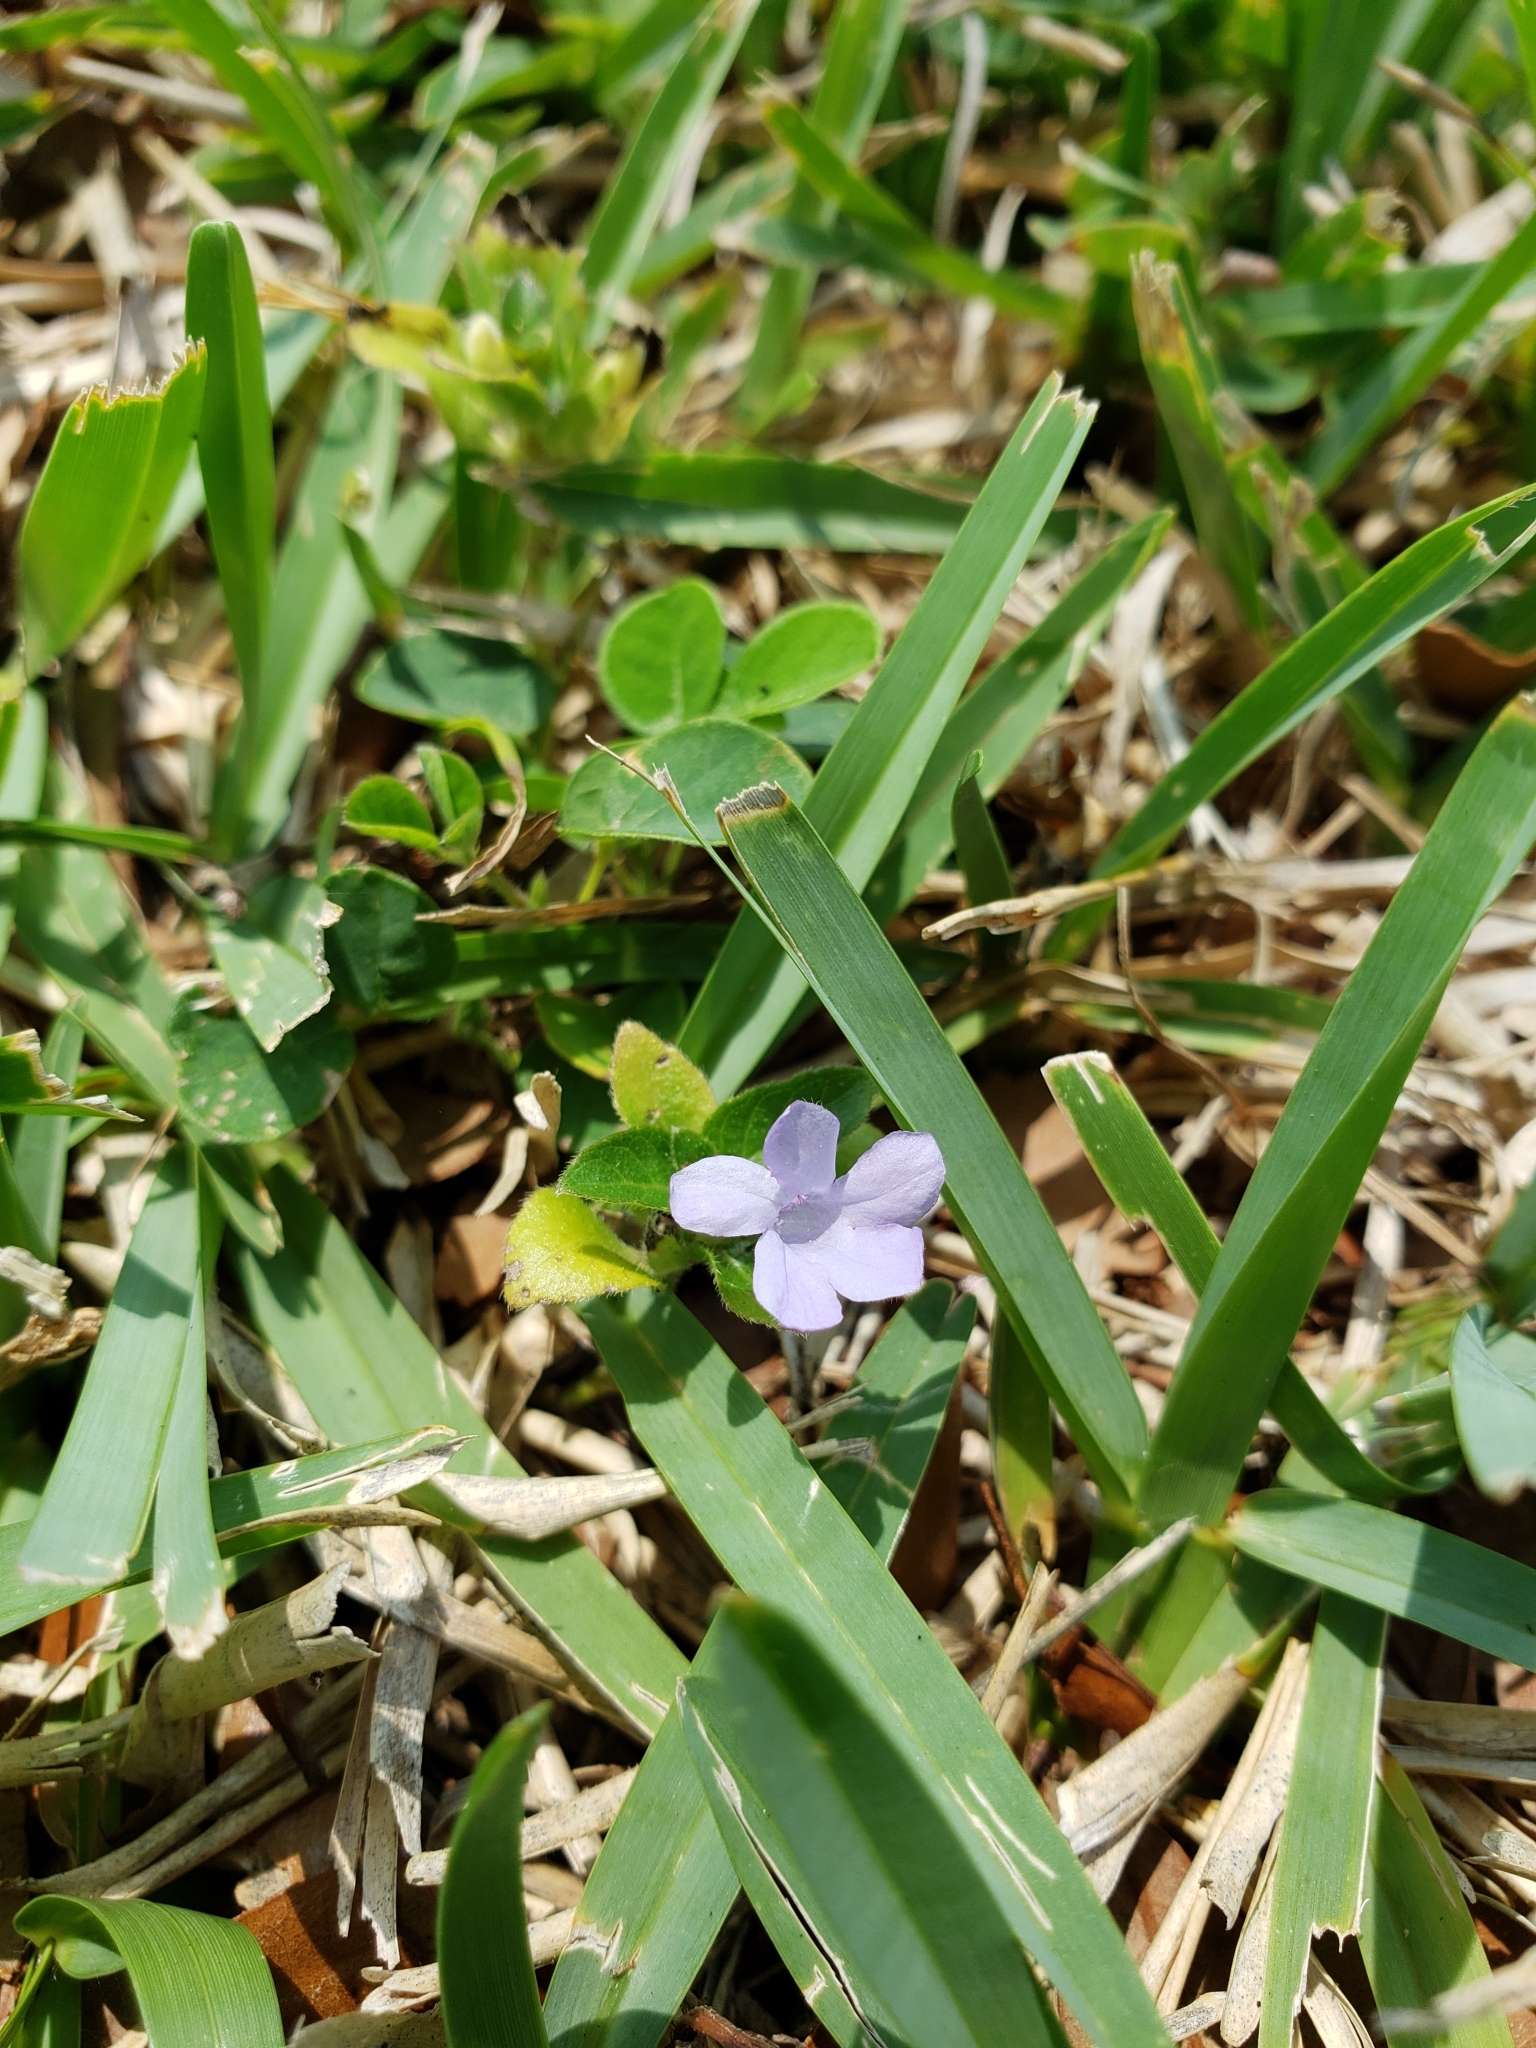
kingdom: Plantae
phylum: Tracheophyta
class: Magnoliopsida
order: Lamiales
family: Acanthaceae
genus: Ruellia
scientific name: Ruellia blechum
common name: Browne's blechum
